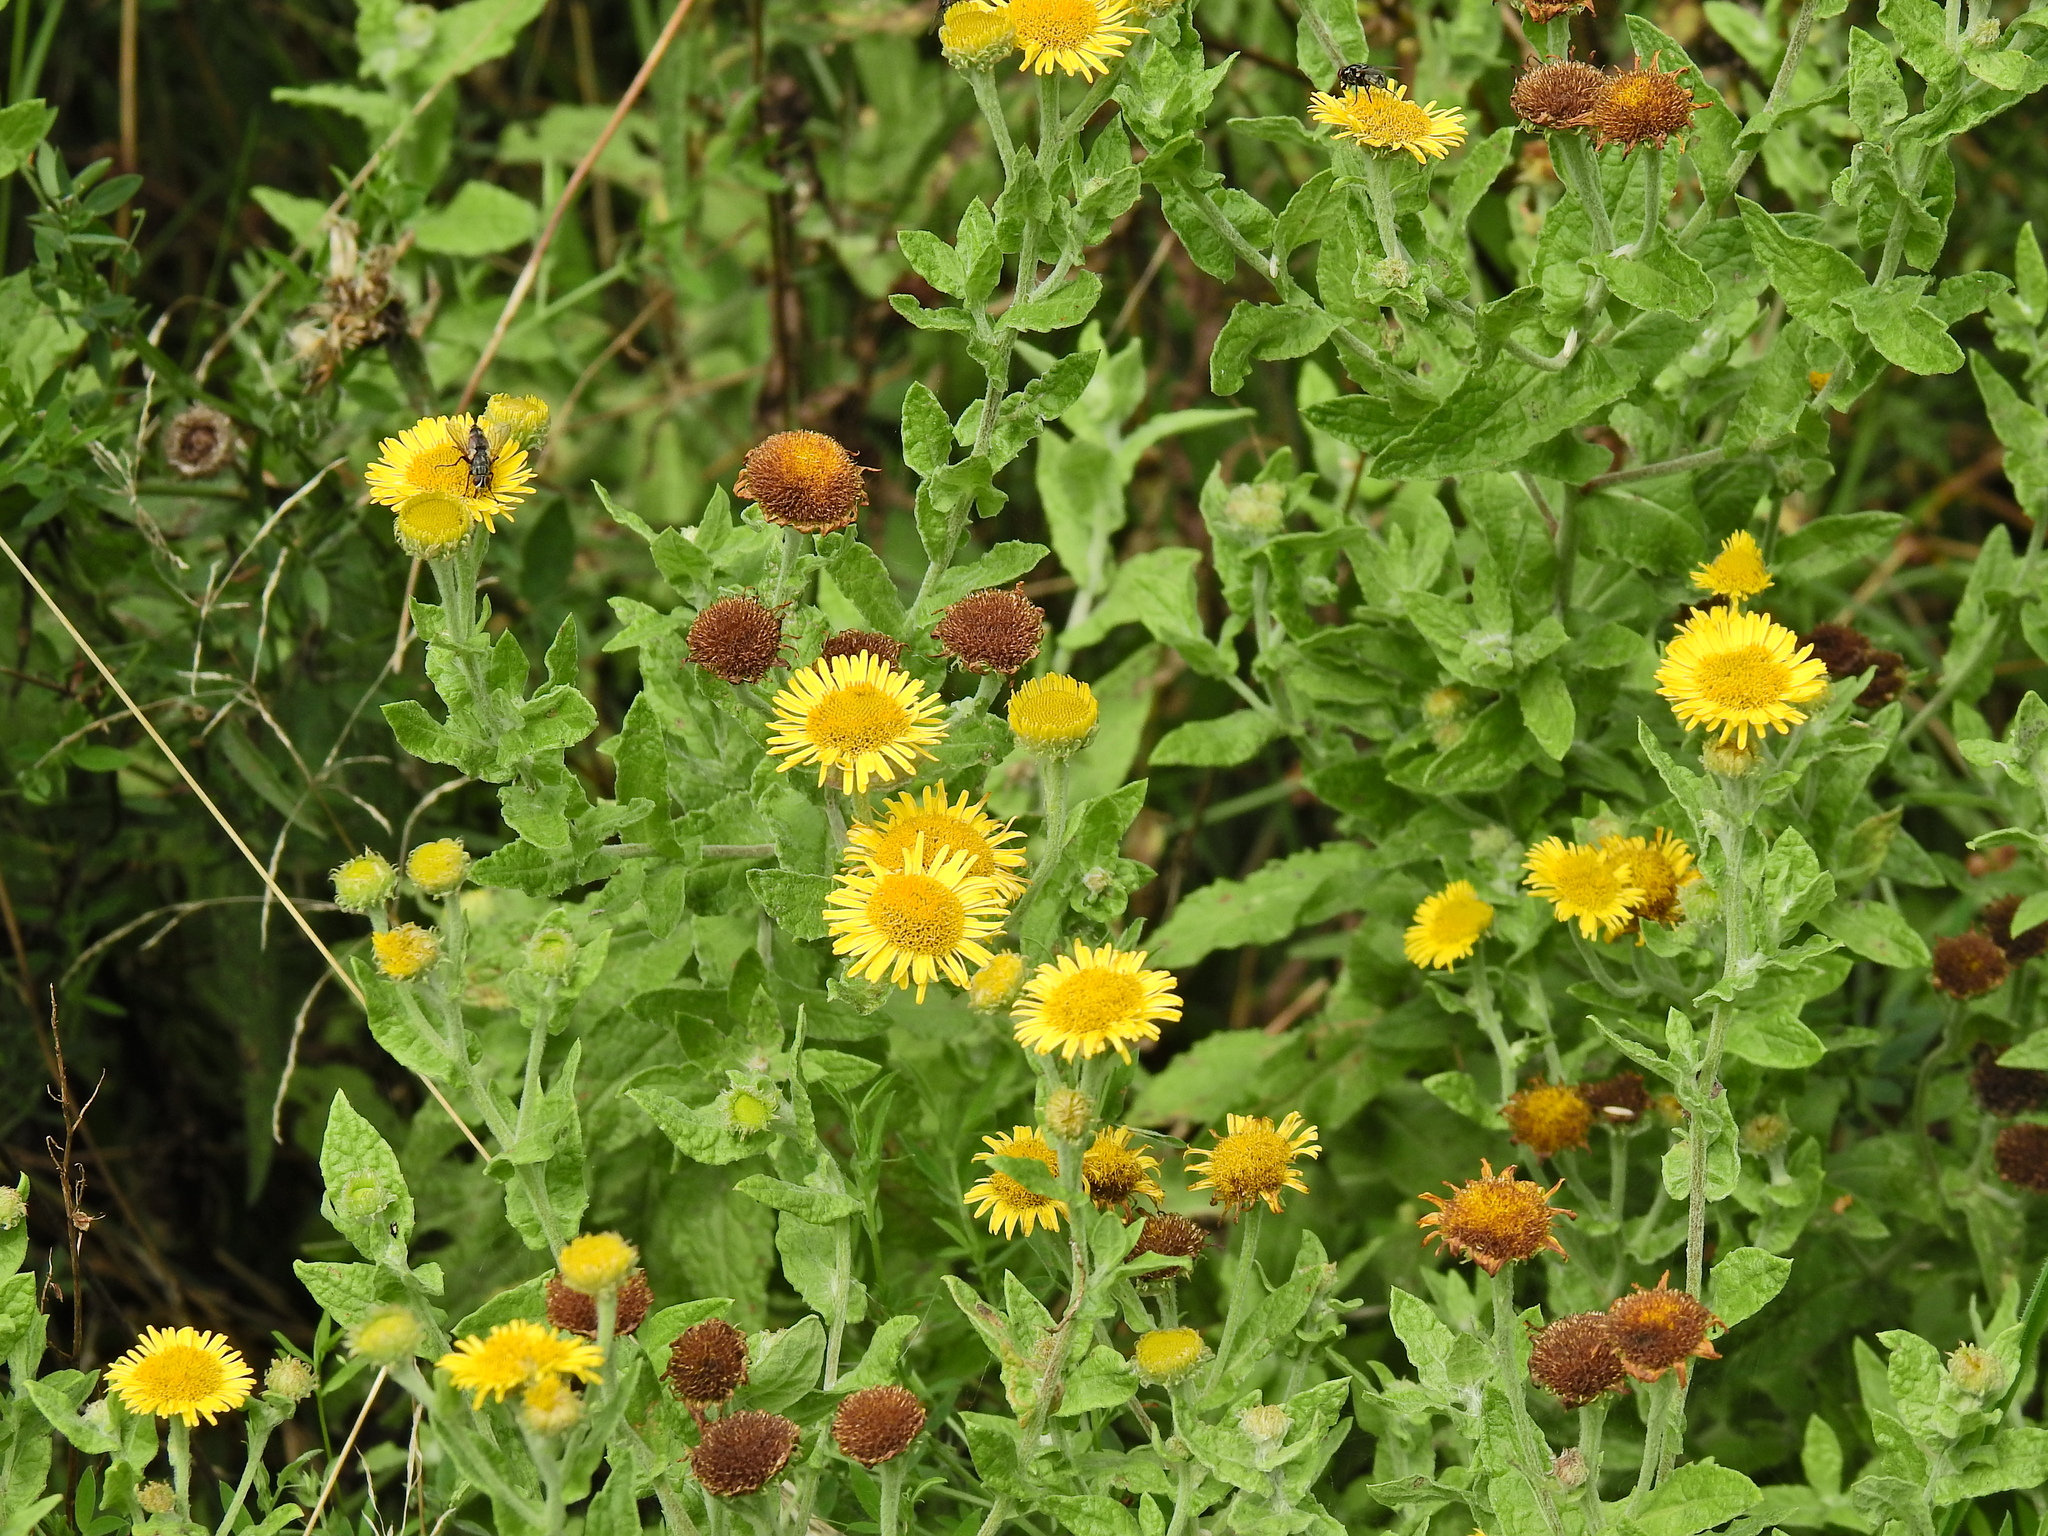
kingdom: Plantae
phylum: Tracheophyta
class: Magnoliopsida
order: Asterales
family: Asteraceae
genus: Pulicaria
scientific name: Pulicaria dysenterica
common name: Common fleabane
